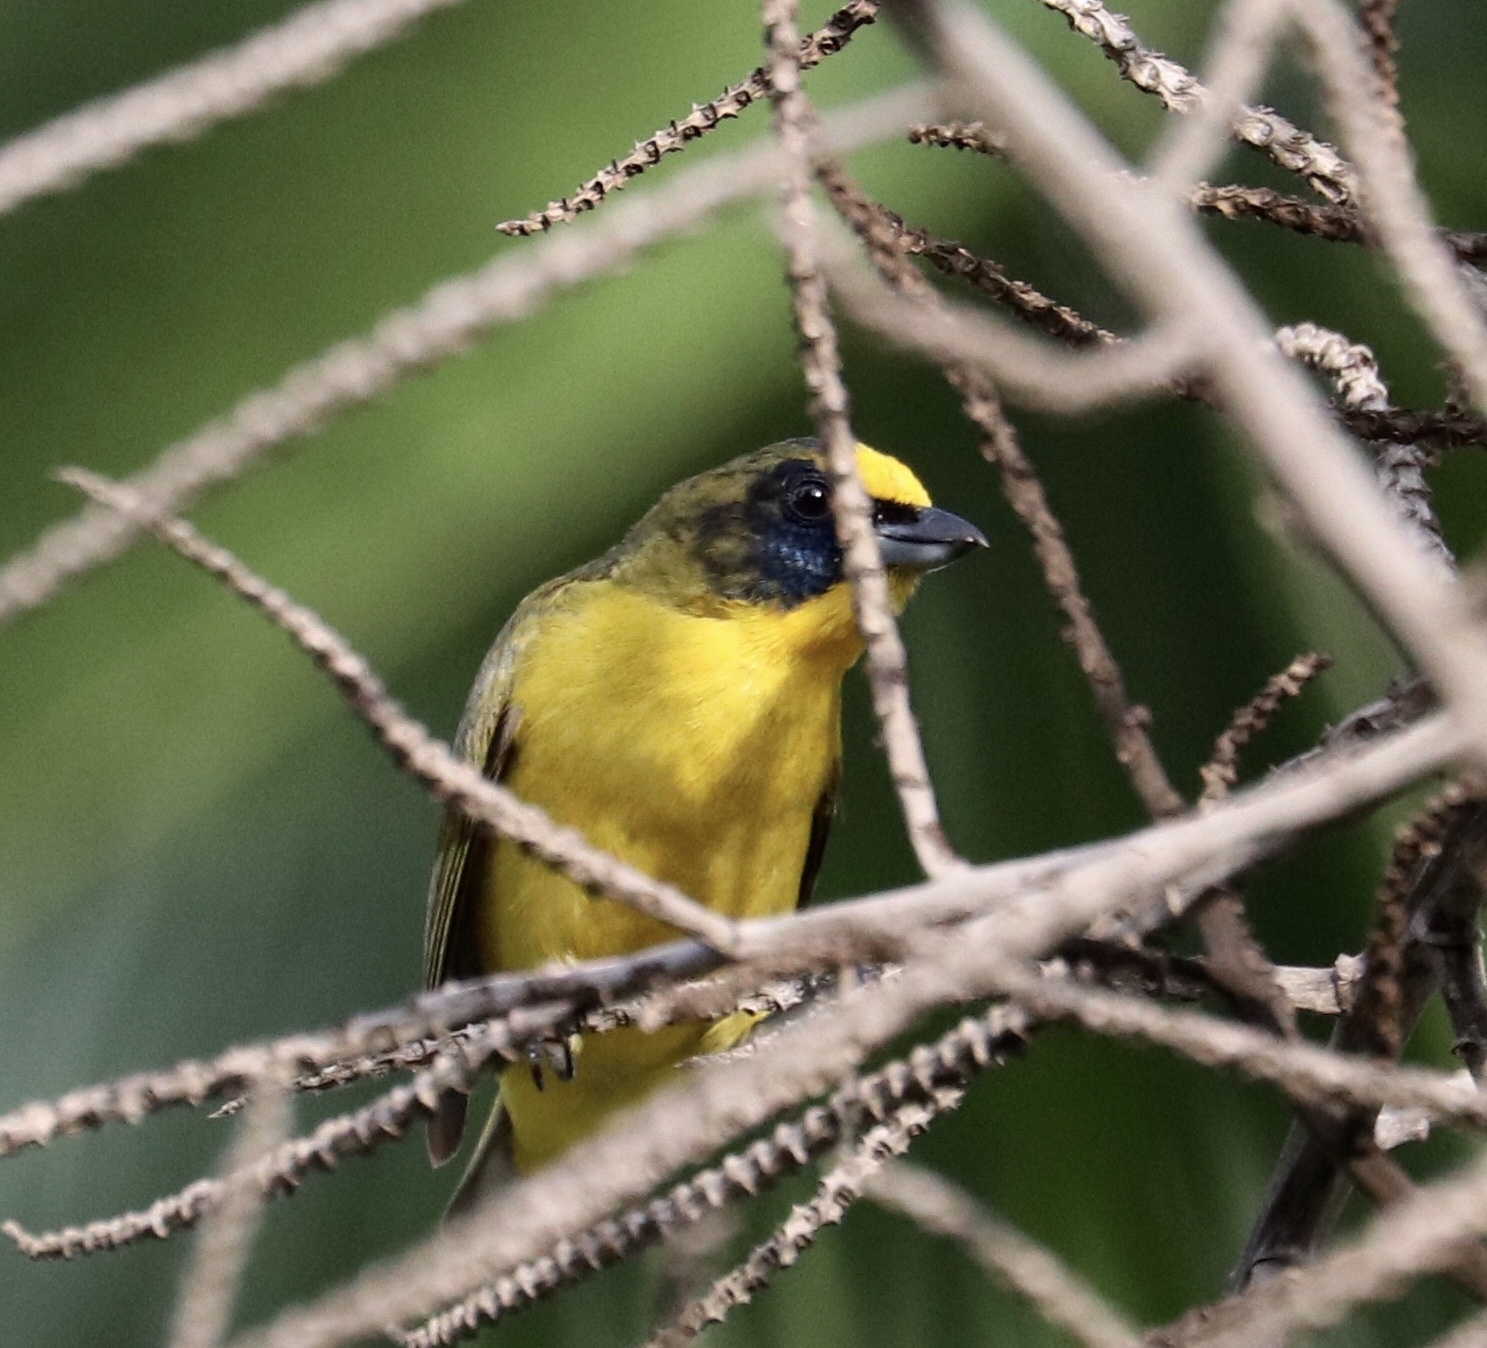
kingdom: Animalia
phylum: Chordata
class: Aves
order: Passeriformes
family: Fringillidae
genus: Euphonia
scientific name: Euphonia laniirostris
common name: Thick-billed euphonia
